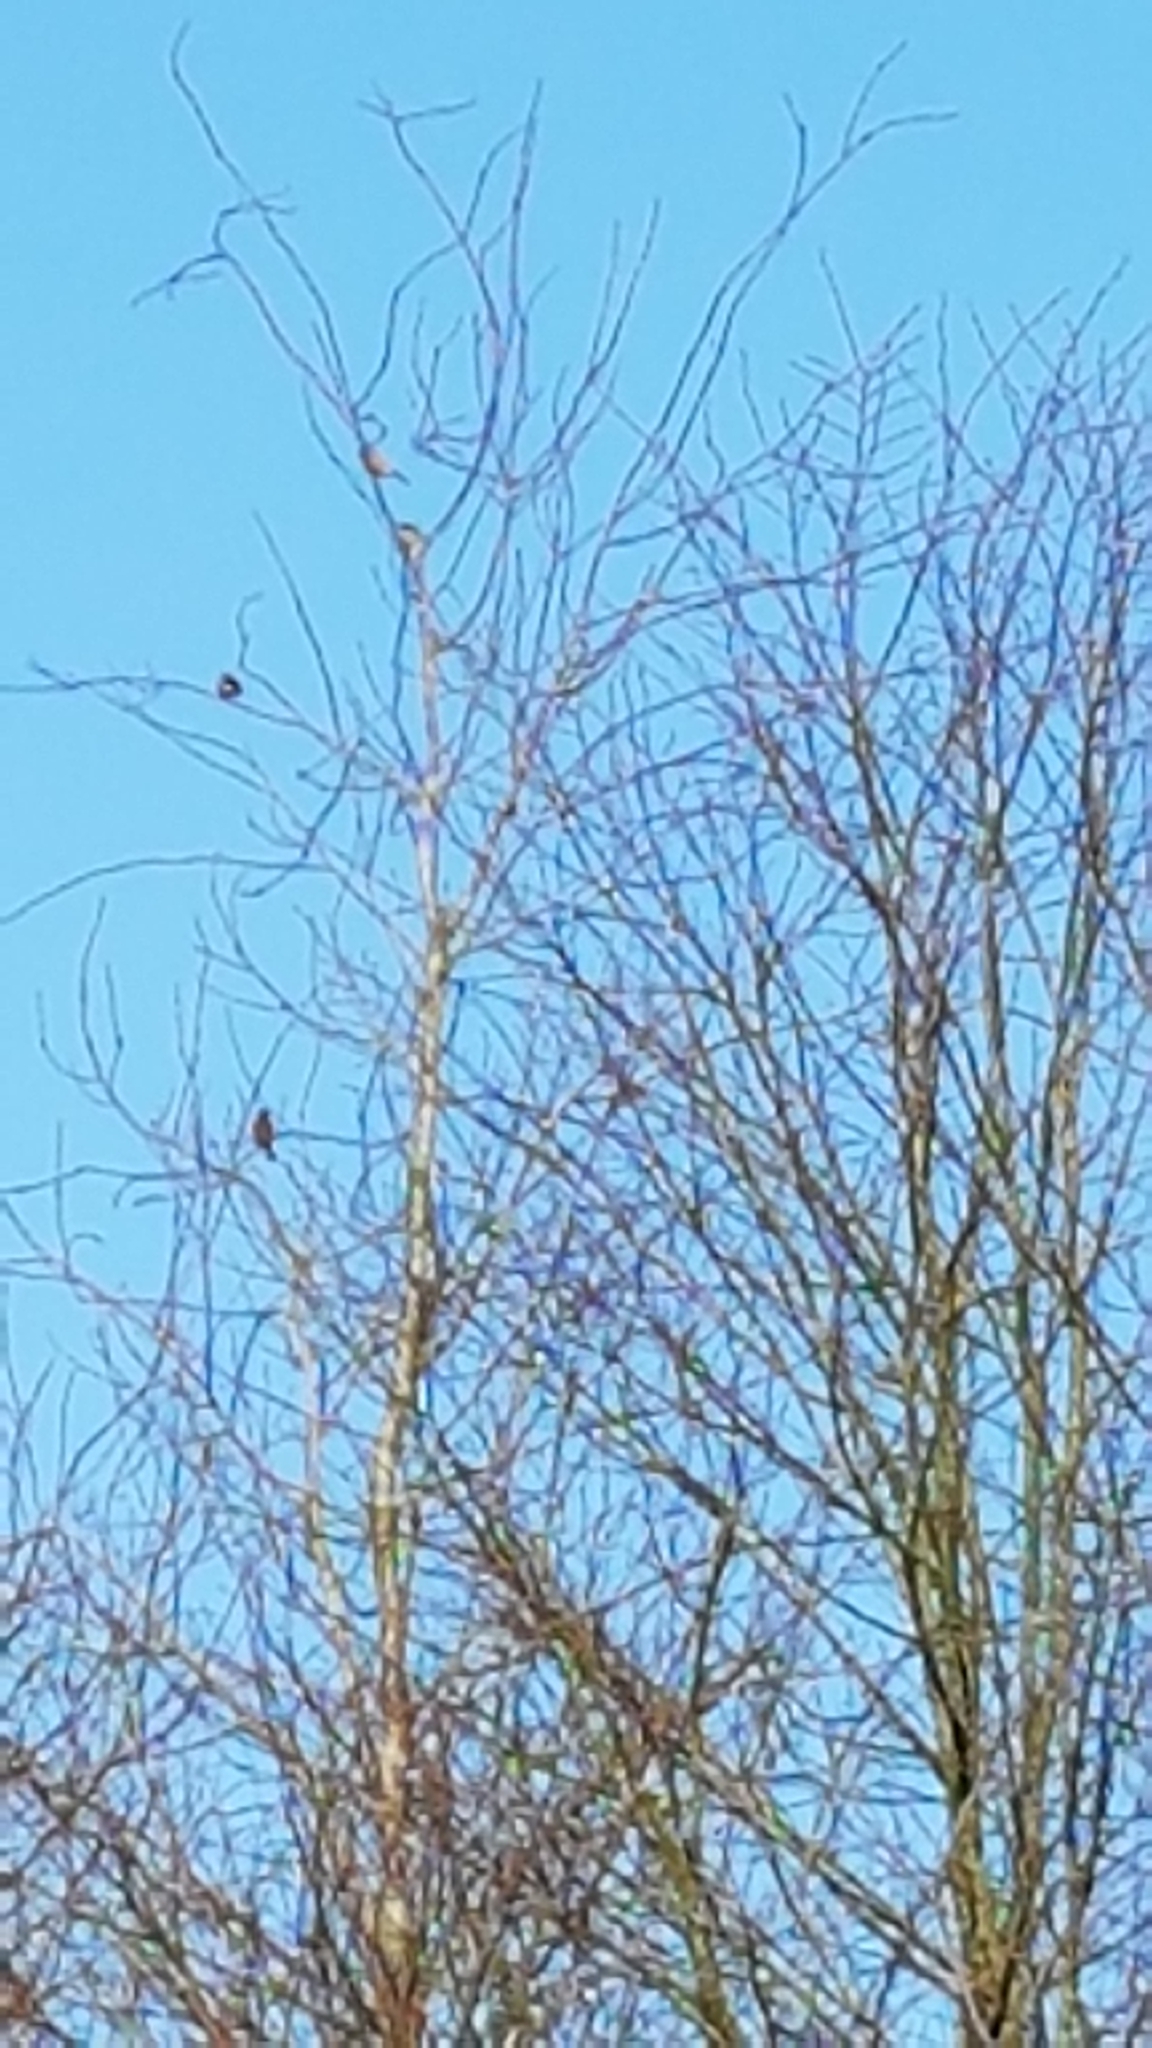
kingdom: Animalia
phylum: Chordata
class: Aves
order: Passeriformes
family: Fringillidae
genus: Pyrrhula
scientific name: Pyrrhula pyrrhula
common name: Eurasian bullfinch
